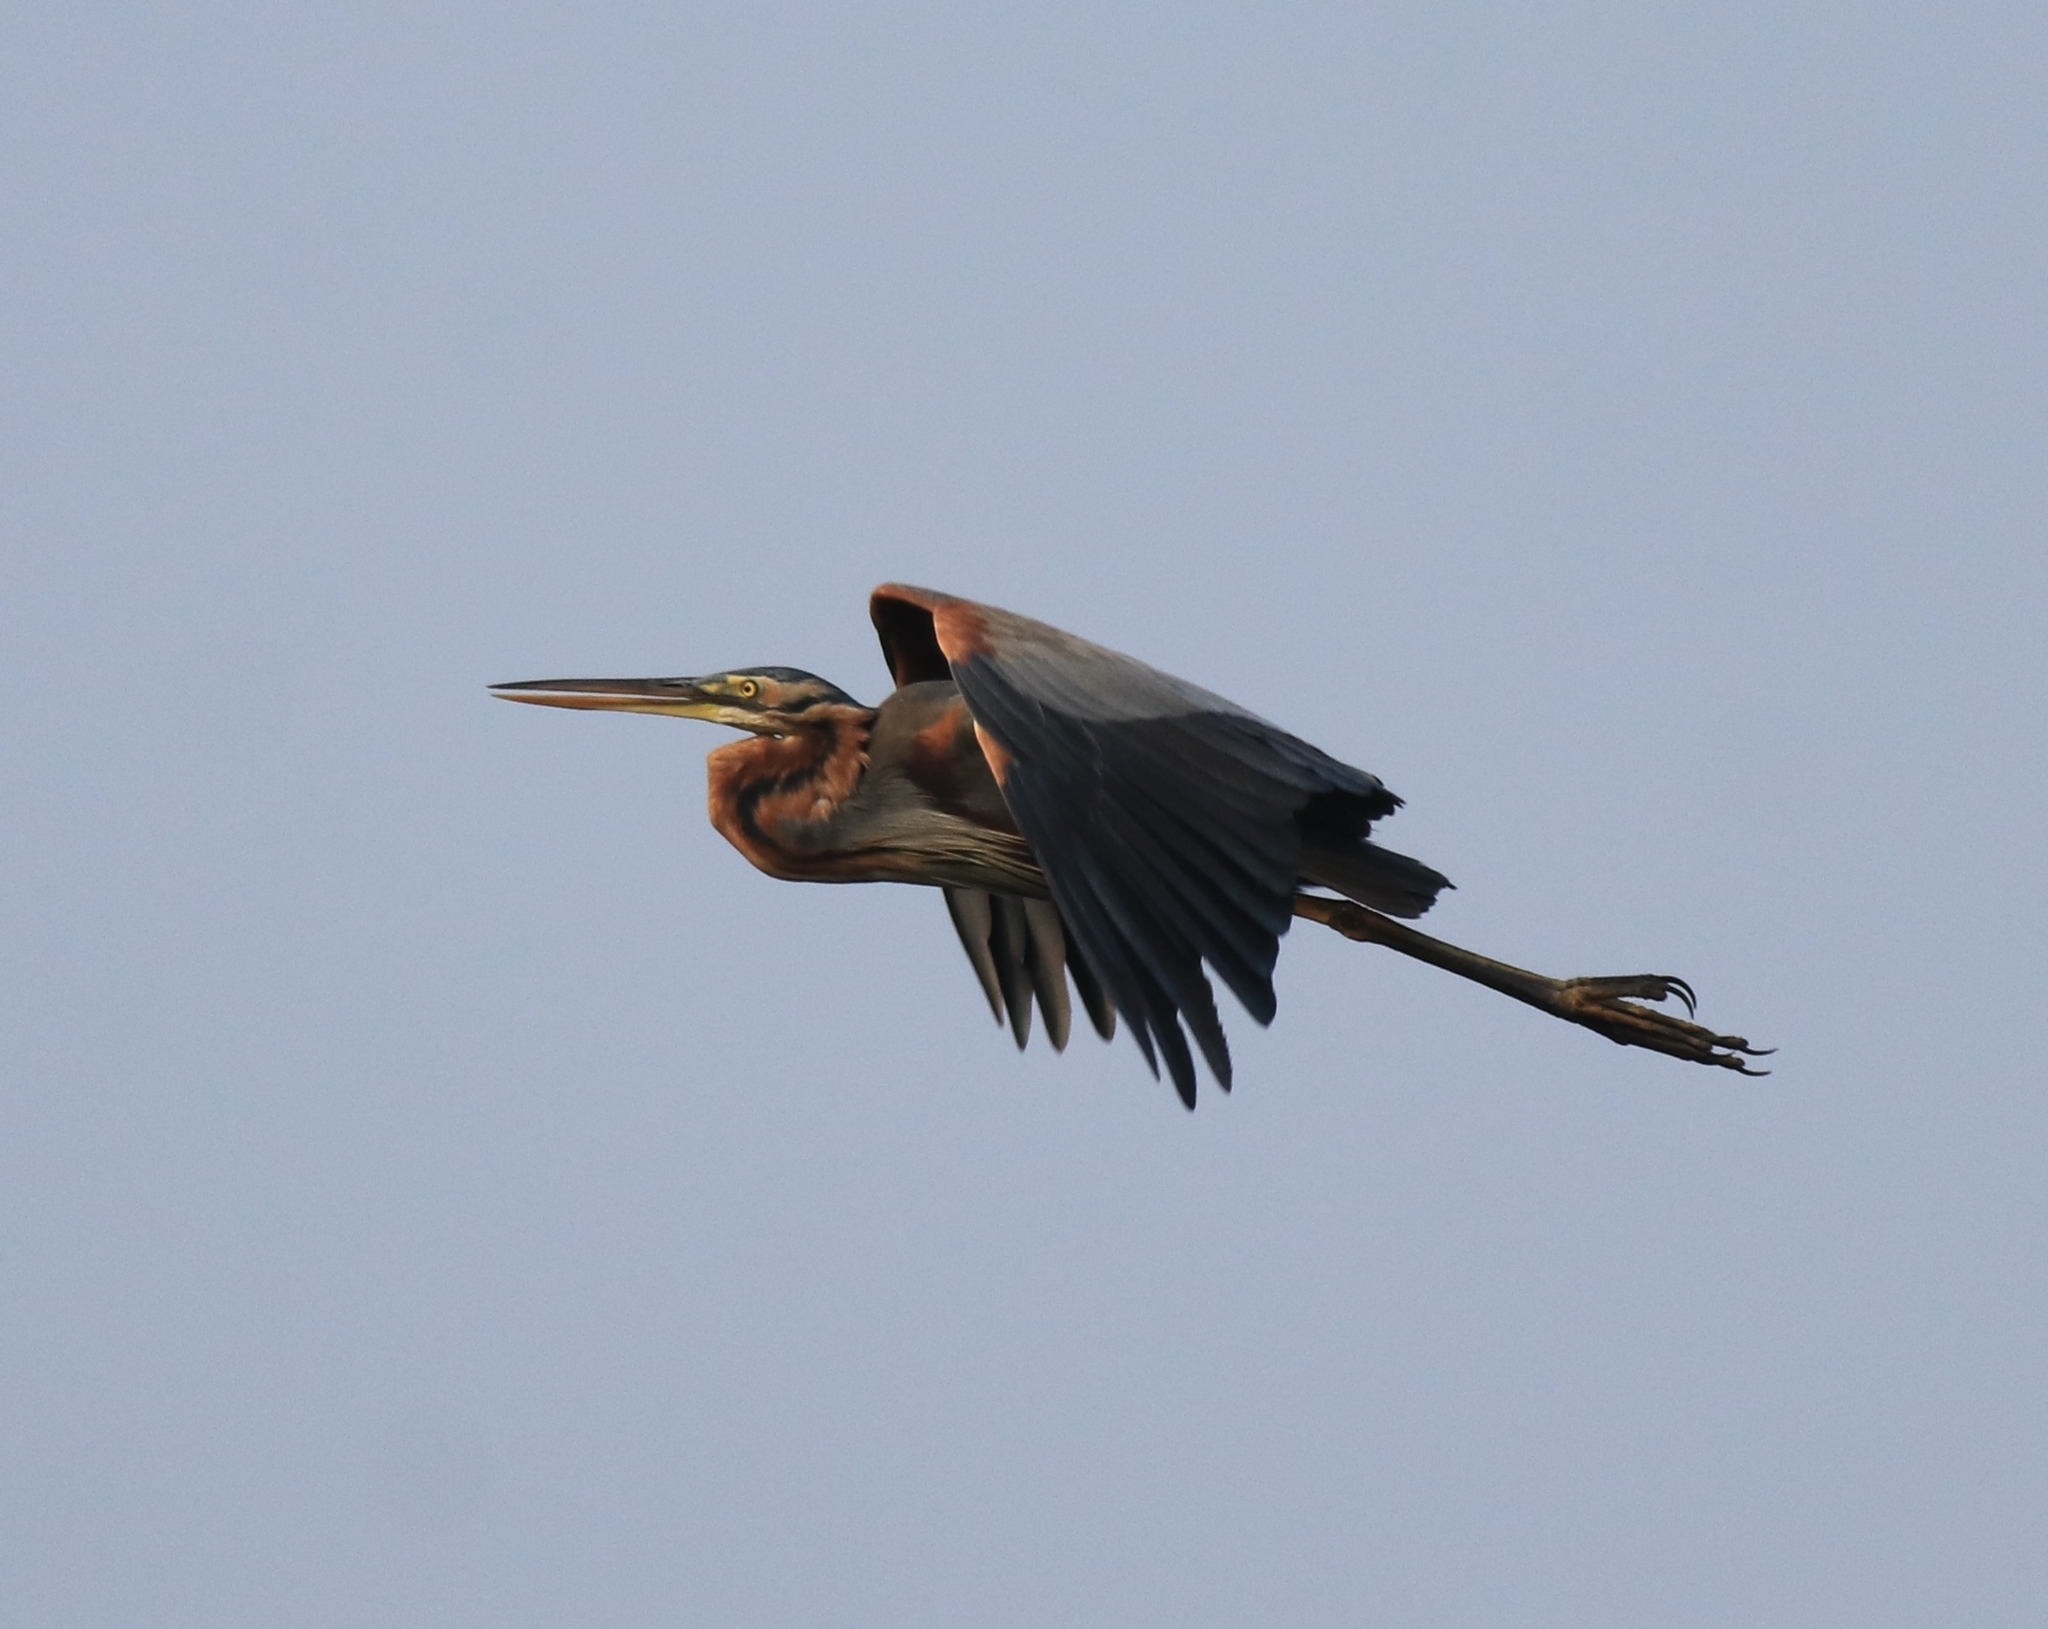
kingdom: Animalia
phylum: Chordata
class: Aves
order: Pelecaniformes
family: Ardeidae
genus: Ardea
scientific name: Ardea purpurea
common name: Purple heron
